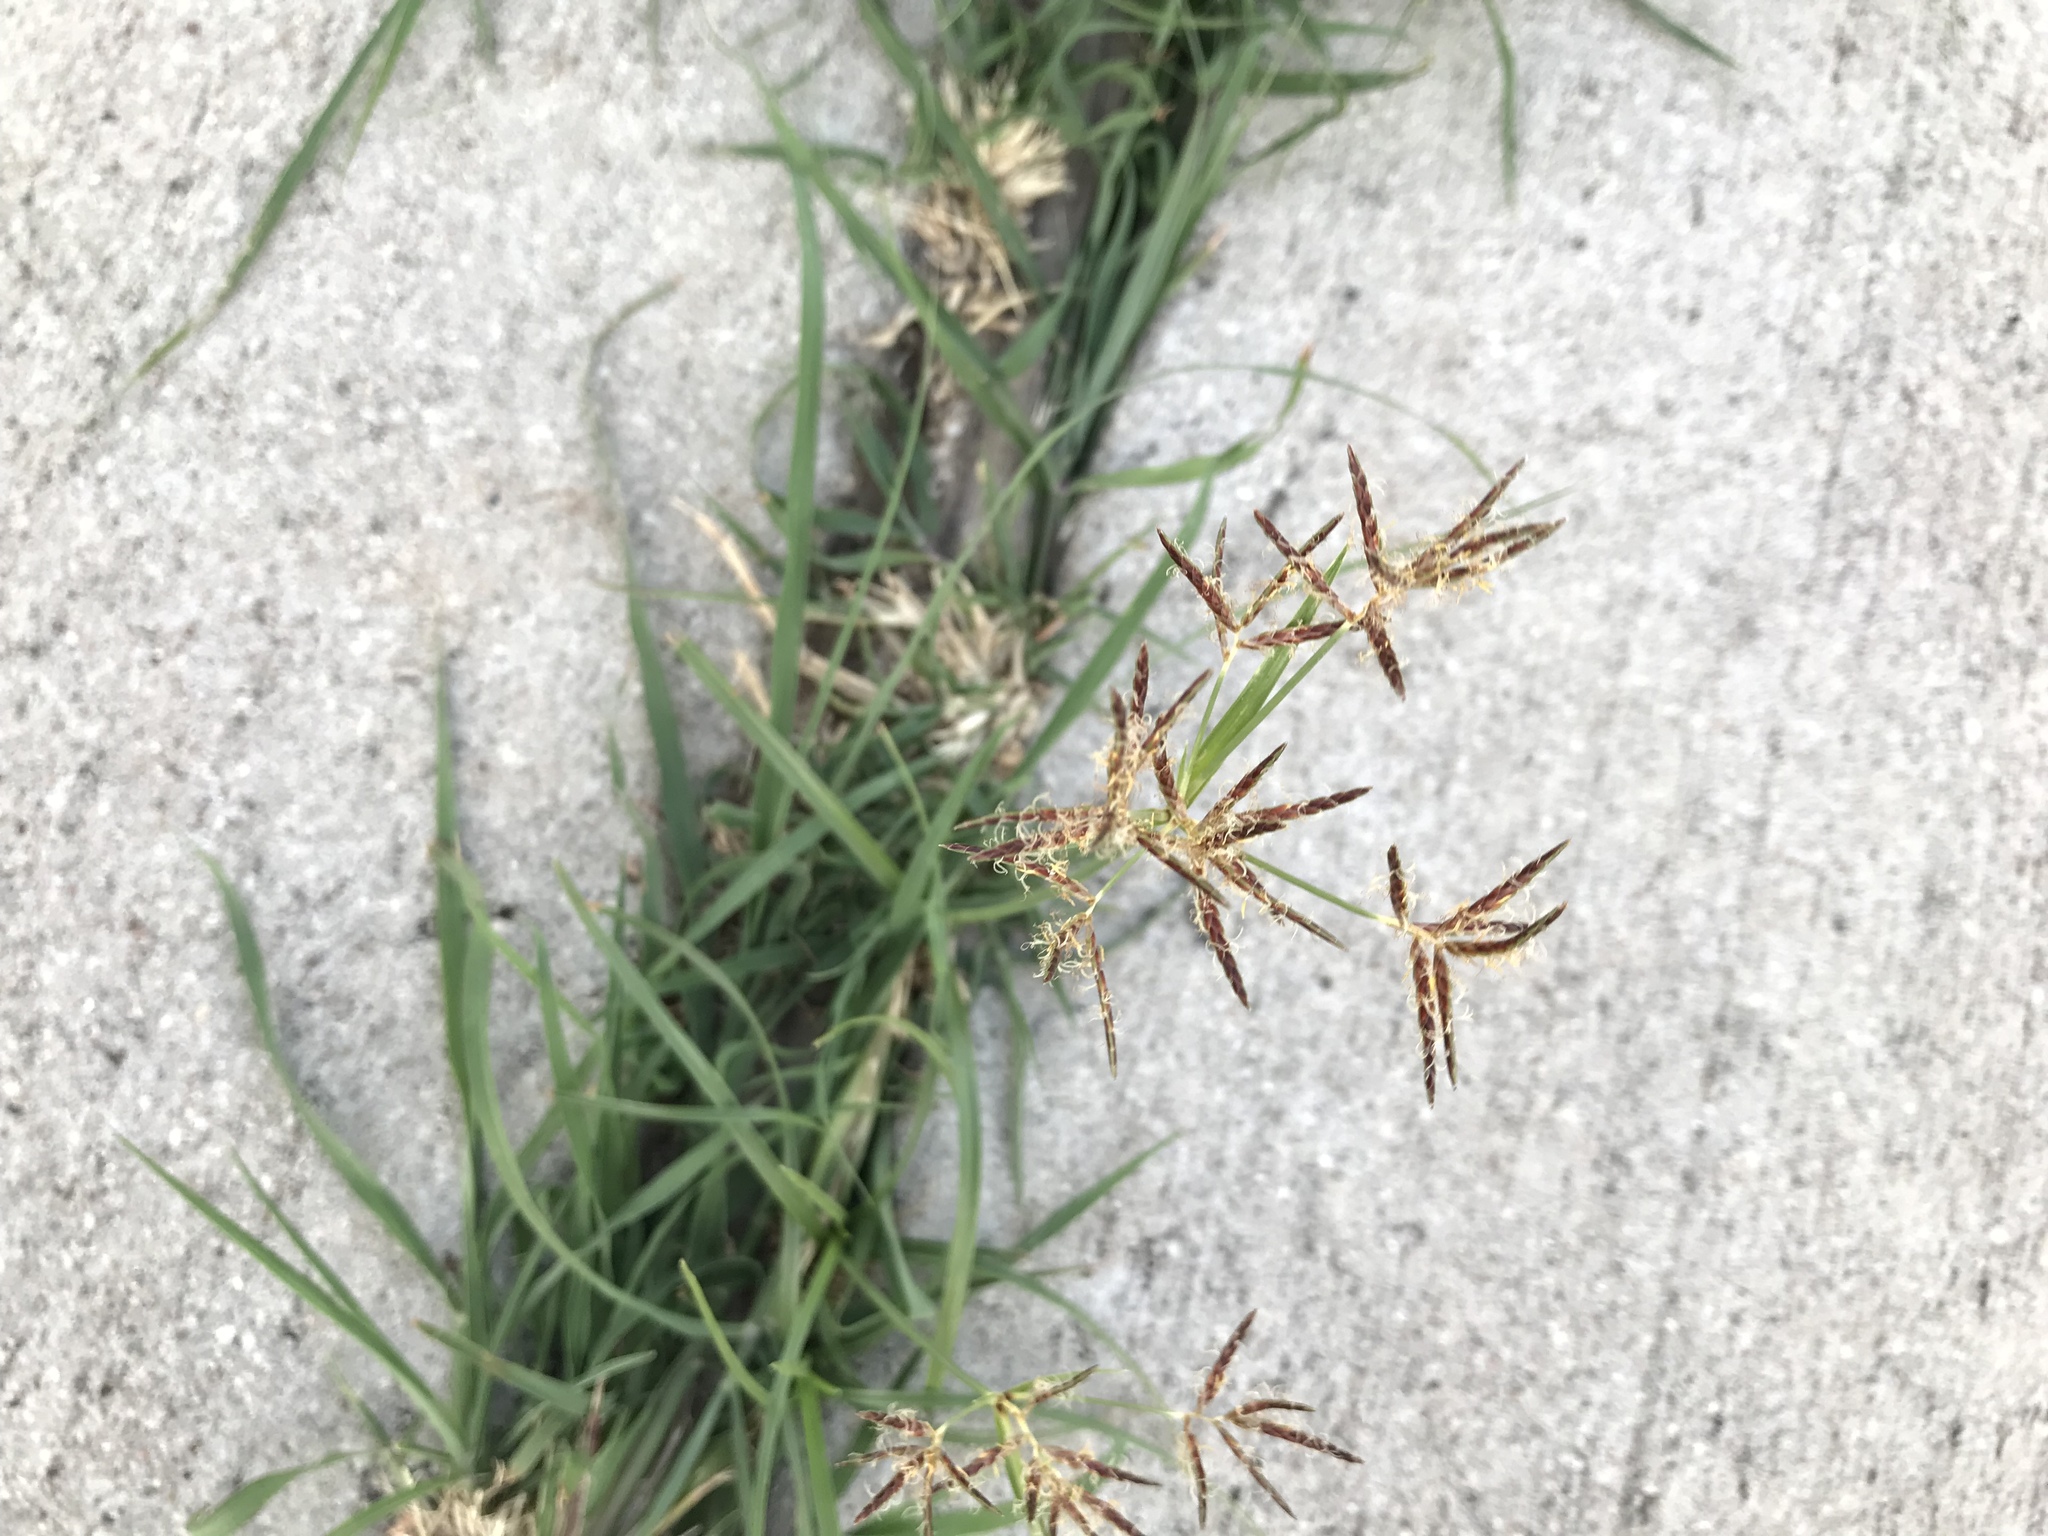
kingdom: Plantae
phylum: Tracheophyta
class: Liliopsida
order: Poales
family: Cyperaceae
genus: Cyperus
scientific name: Cyperus rotundus
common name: Nutgrass
